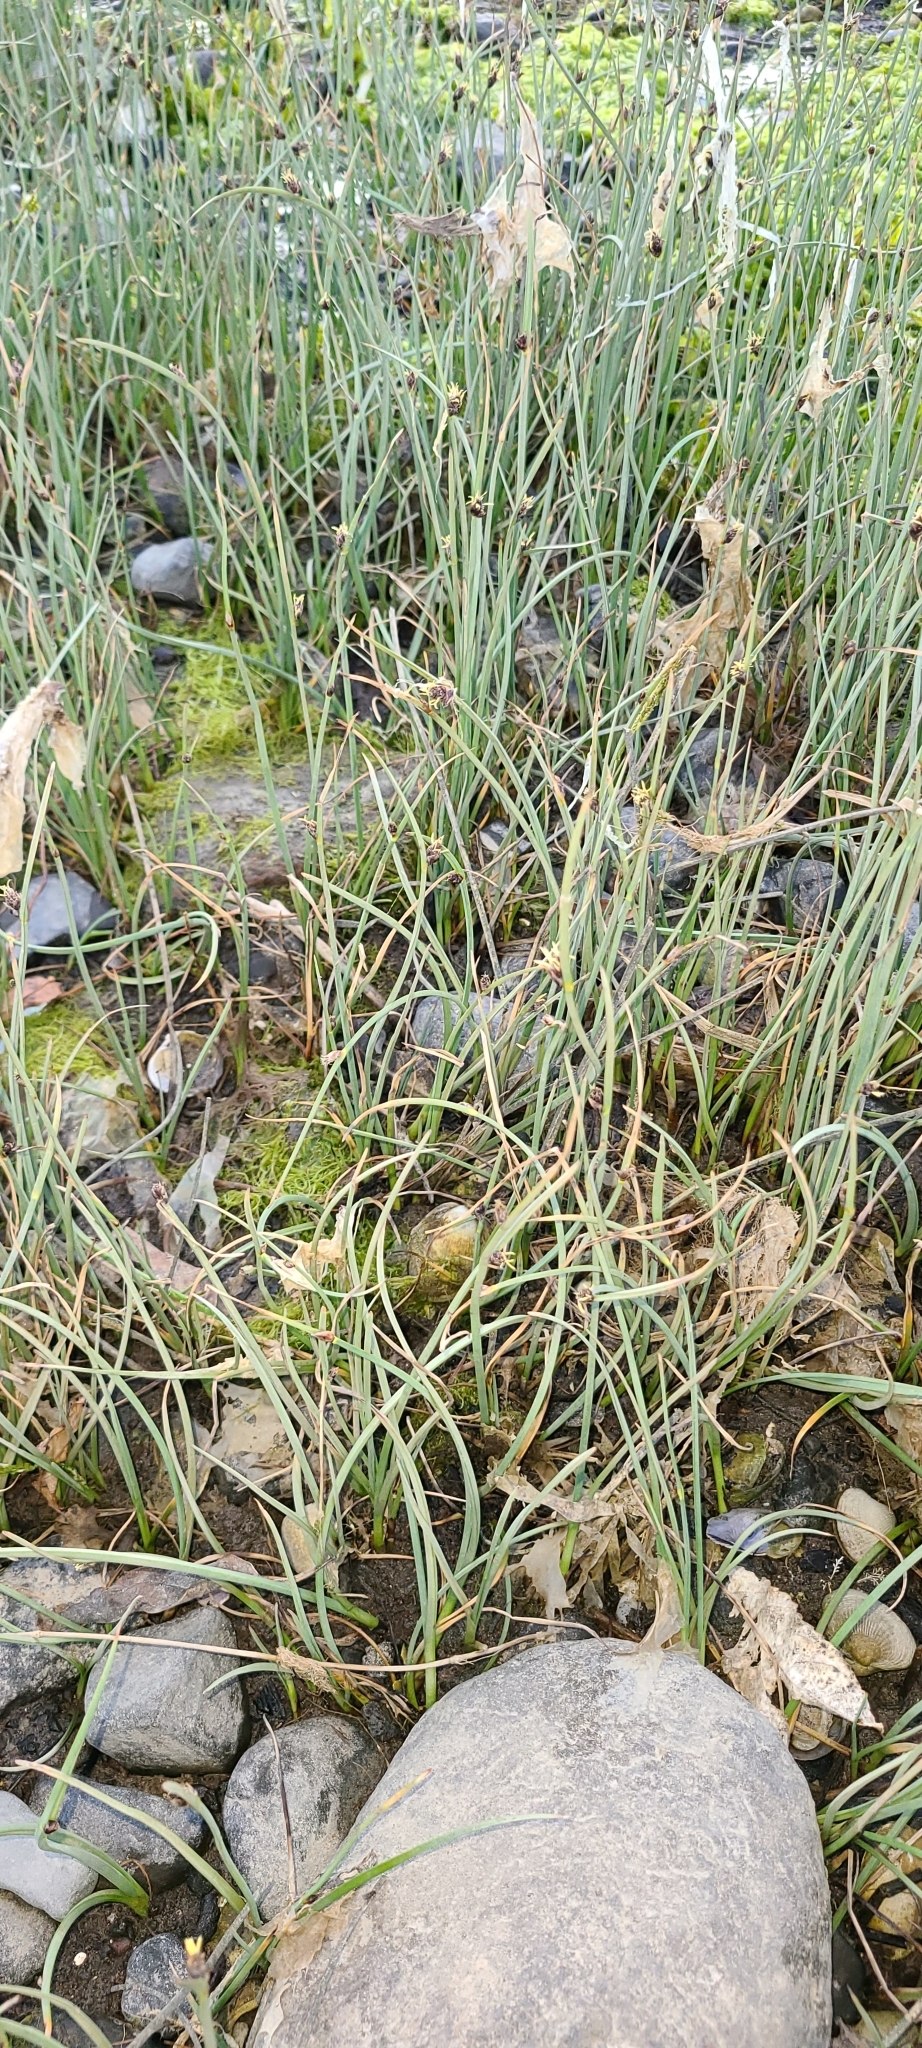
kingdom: Plantae
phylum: Tracheophyta
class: Liliopsida
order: Poales
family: Cyperaceae
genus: Schoenoplectus
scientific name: Schoenoplectus pungens
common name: Sharp club-rush
